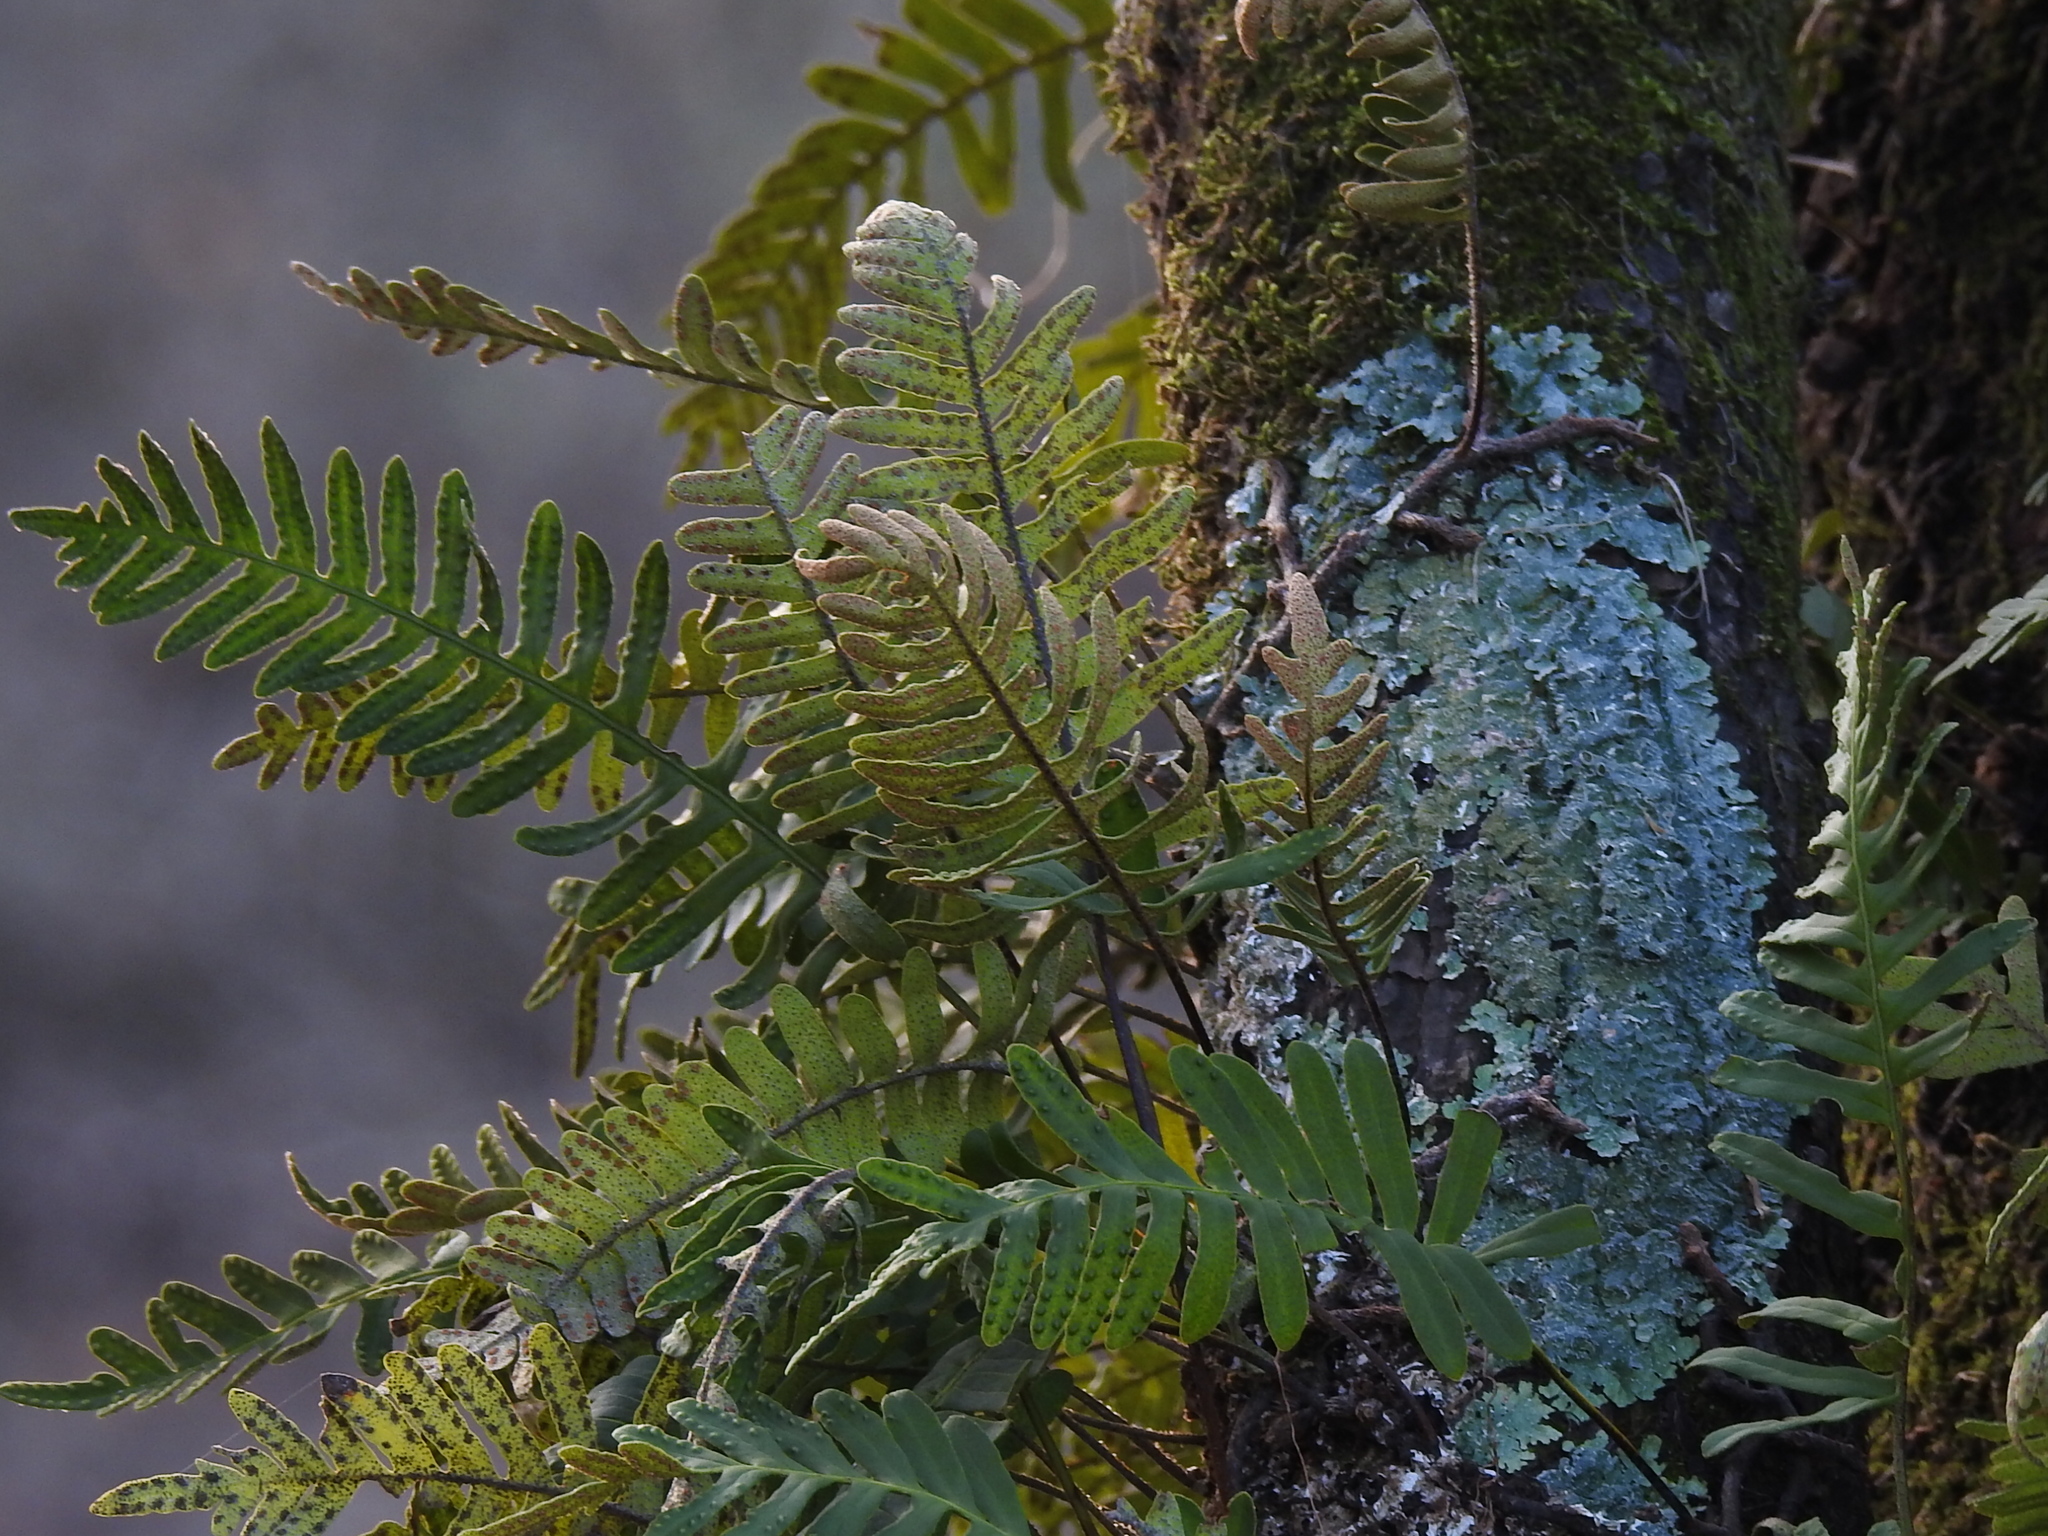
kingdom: Plantae
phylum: Tracheophyta
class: Polypodiopsida
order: Polypodiales
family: Polypodiaceae
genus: Pleopeltis
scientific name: Pleopeltis michauxiana
